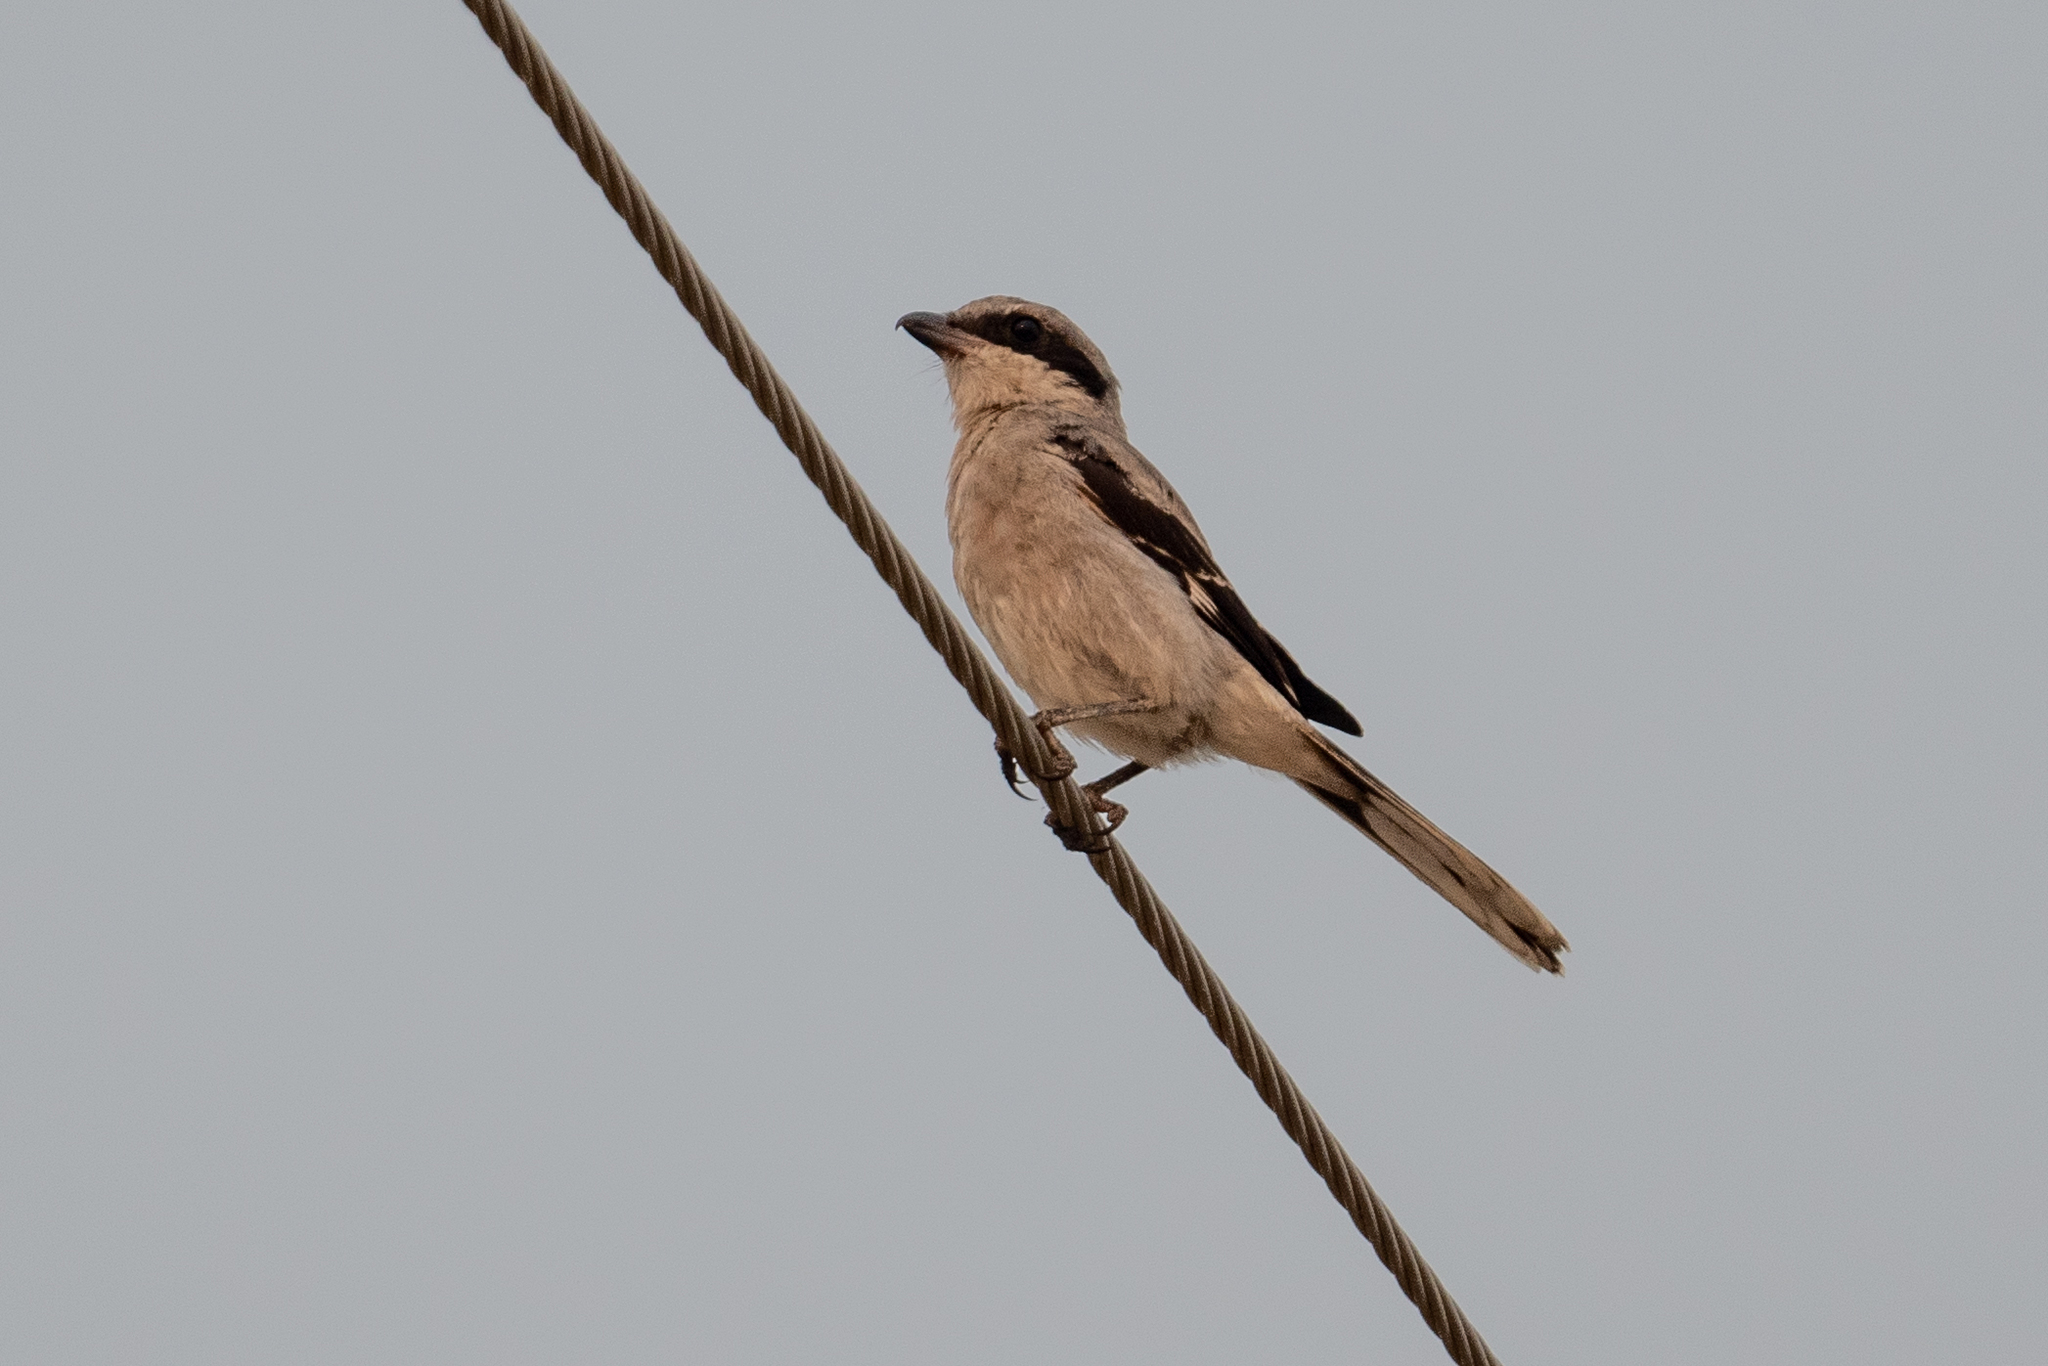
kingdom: Animalia
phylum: Chordata
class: Aves
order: Passeriformes
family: Laniidae
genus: Lanius
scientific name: Lanius ludovicianus
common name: Loggerhead shrike
